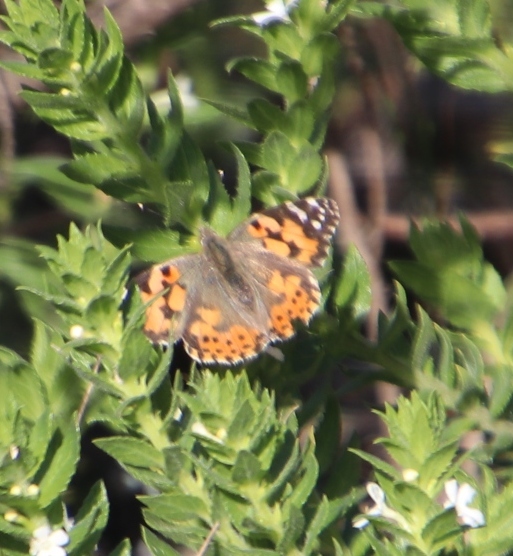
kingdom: Plantae
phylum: Tracheophyta
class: Magnoliopsida
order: Lamiales
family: Scrophulariaceae
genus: Oftia
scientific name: Oftia africana
